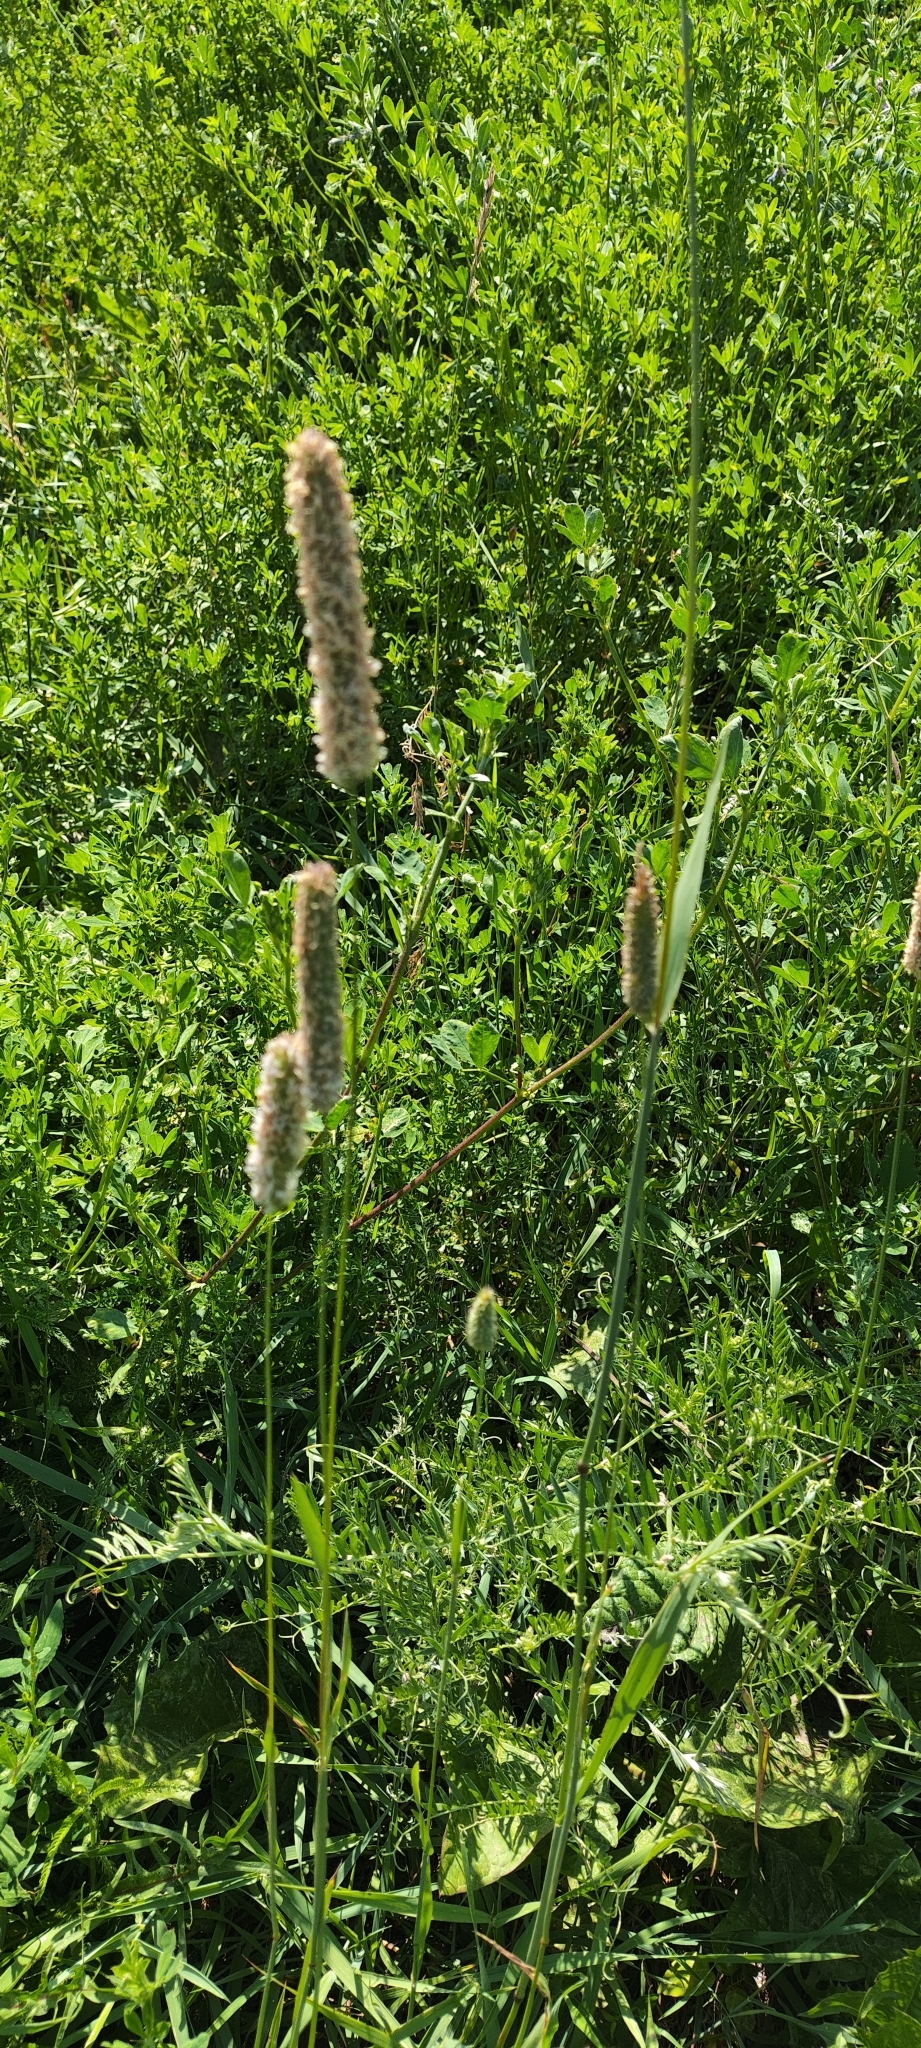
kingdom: Plantae
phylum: Tracheophyta
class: Liliopsida
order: Poales
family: Poaceae
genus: Phleum
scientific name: Phleum pratense
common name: Timothy grass
